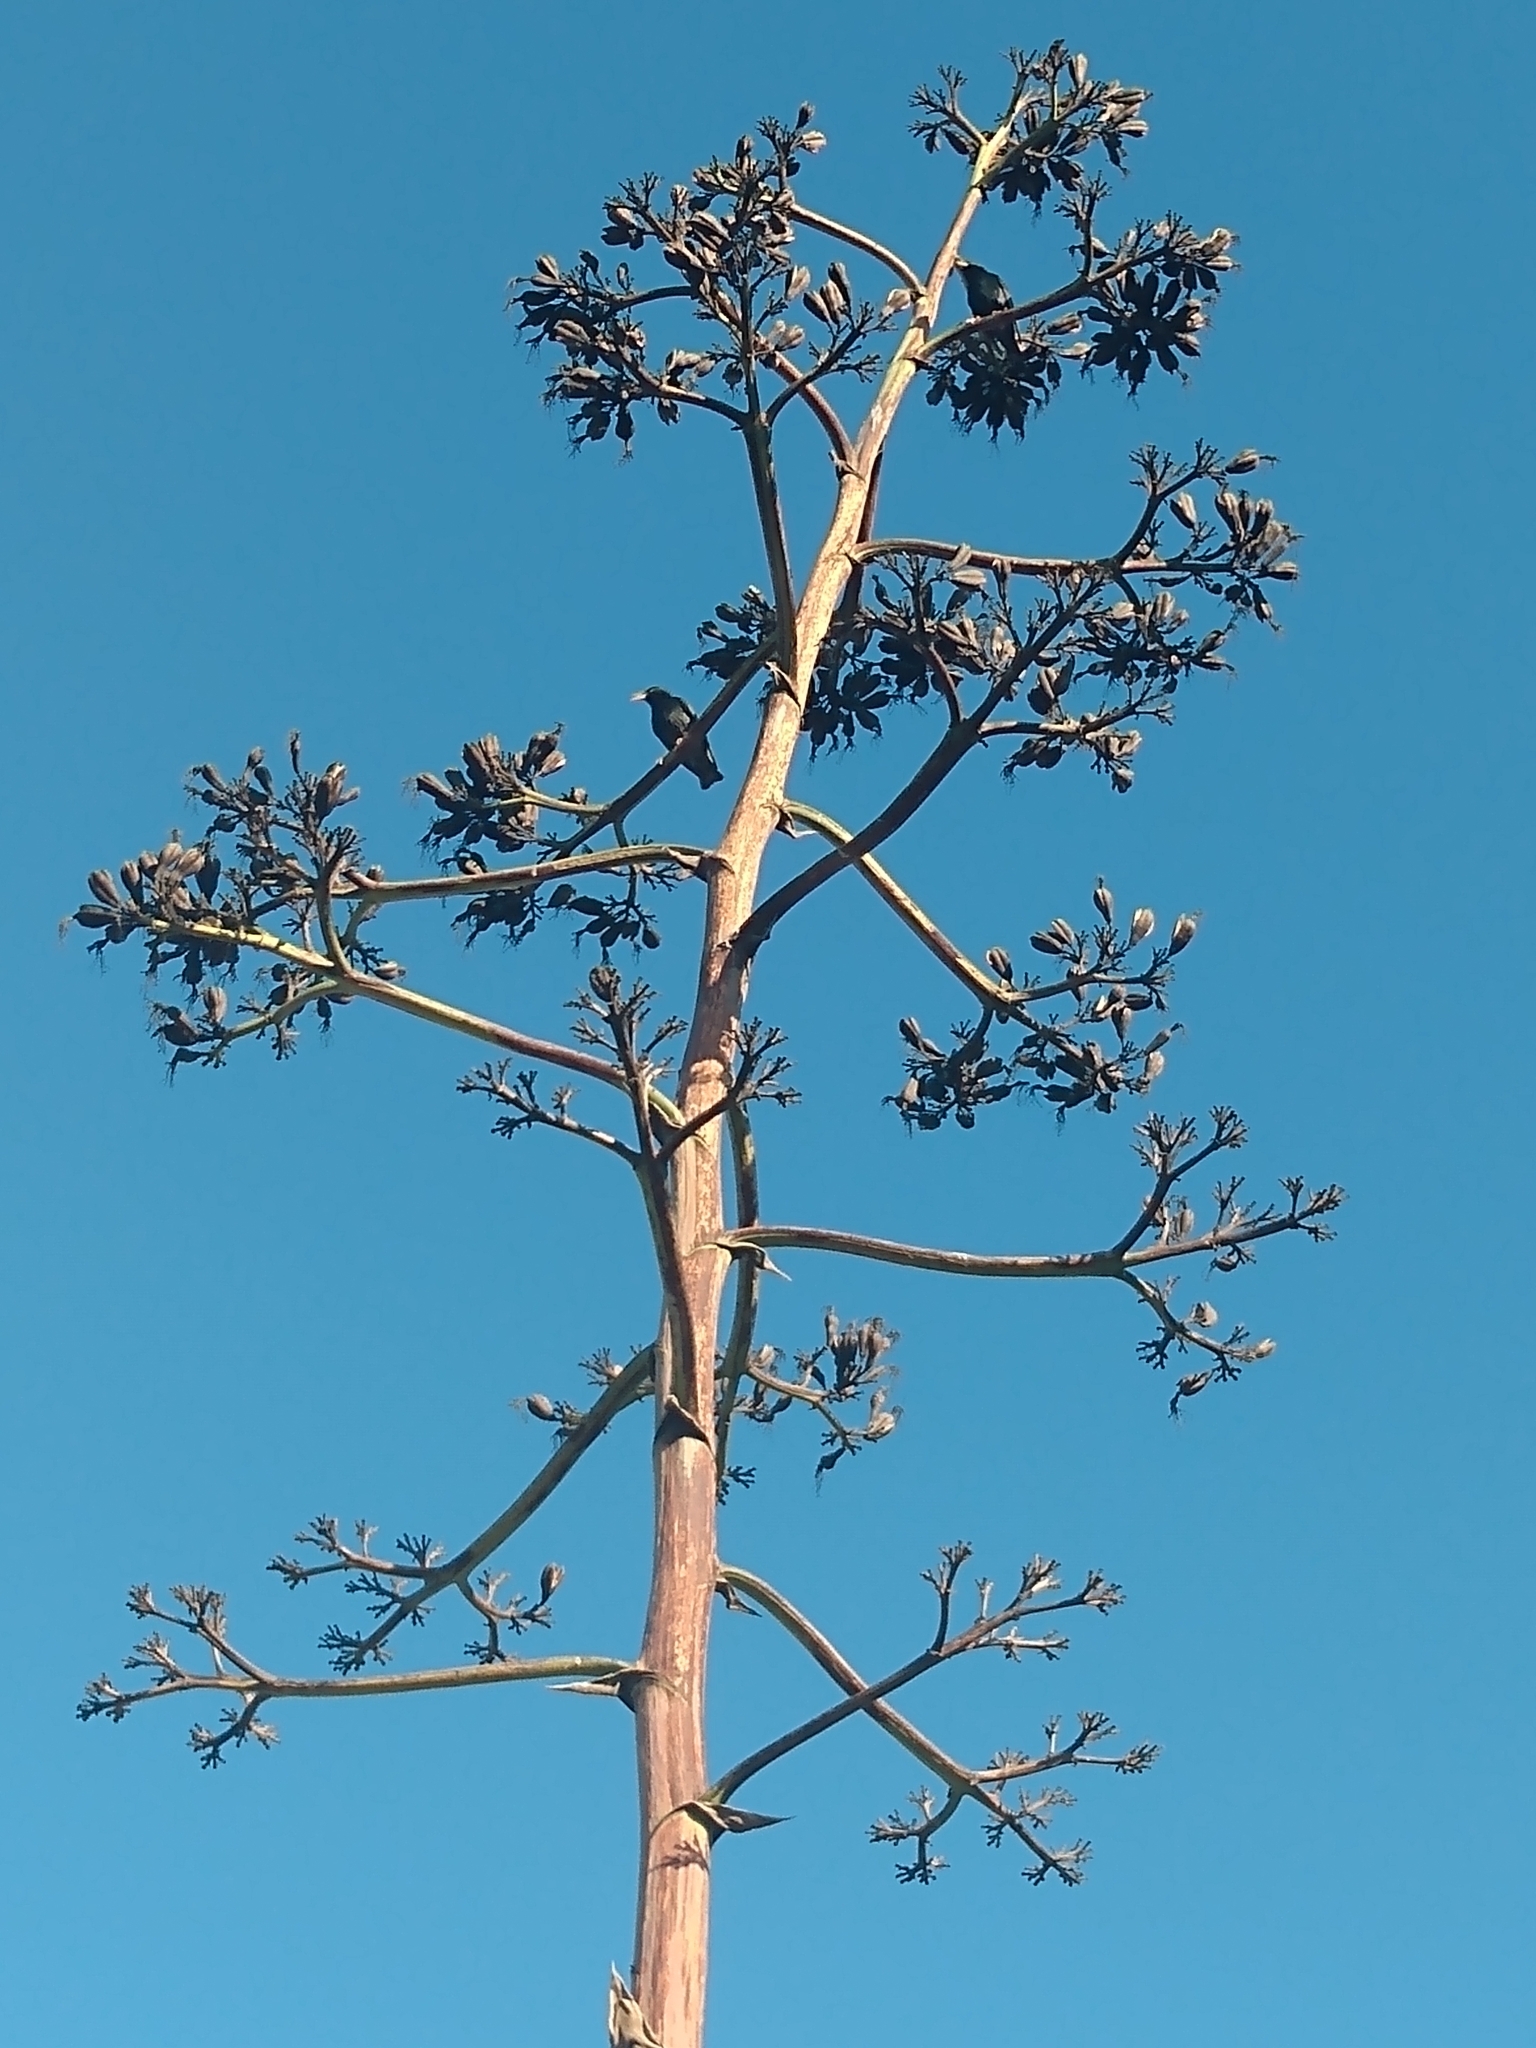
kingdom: Animalia
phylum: Chordata
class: Aves
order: Passeriformes
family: Sturnidae
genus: Sturnus
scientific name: Sturnus vulgaris
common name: Common starling
